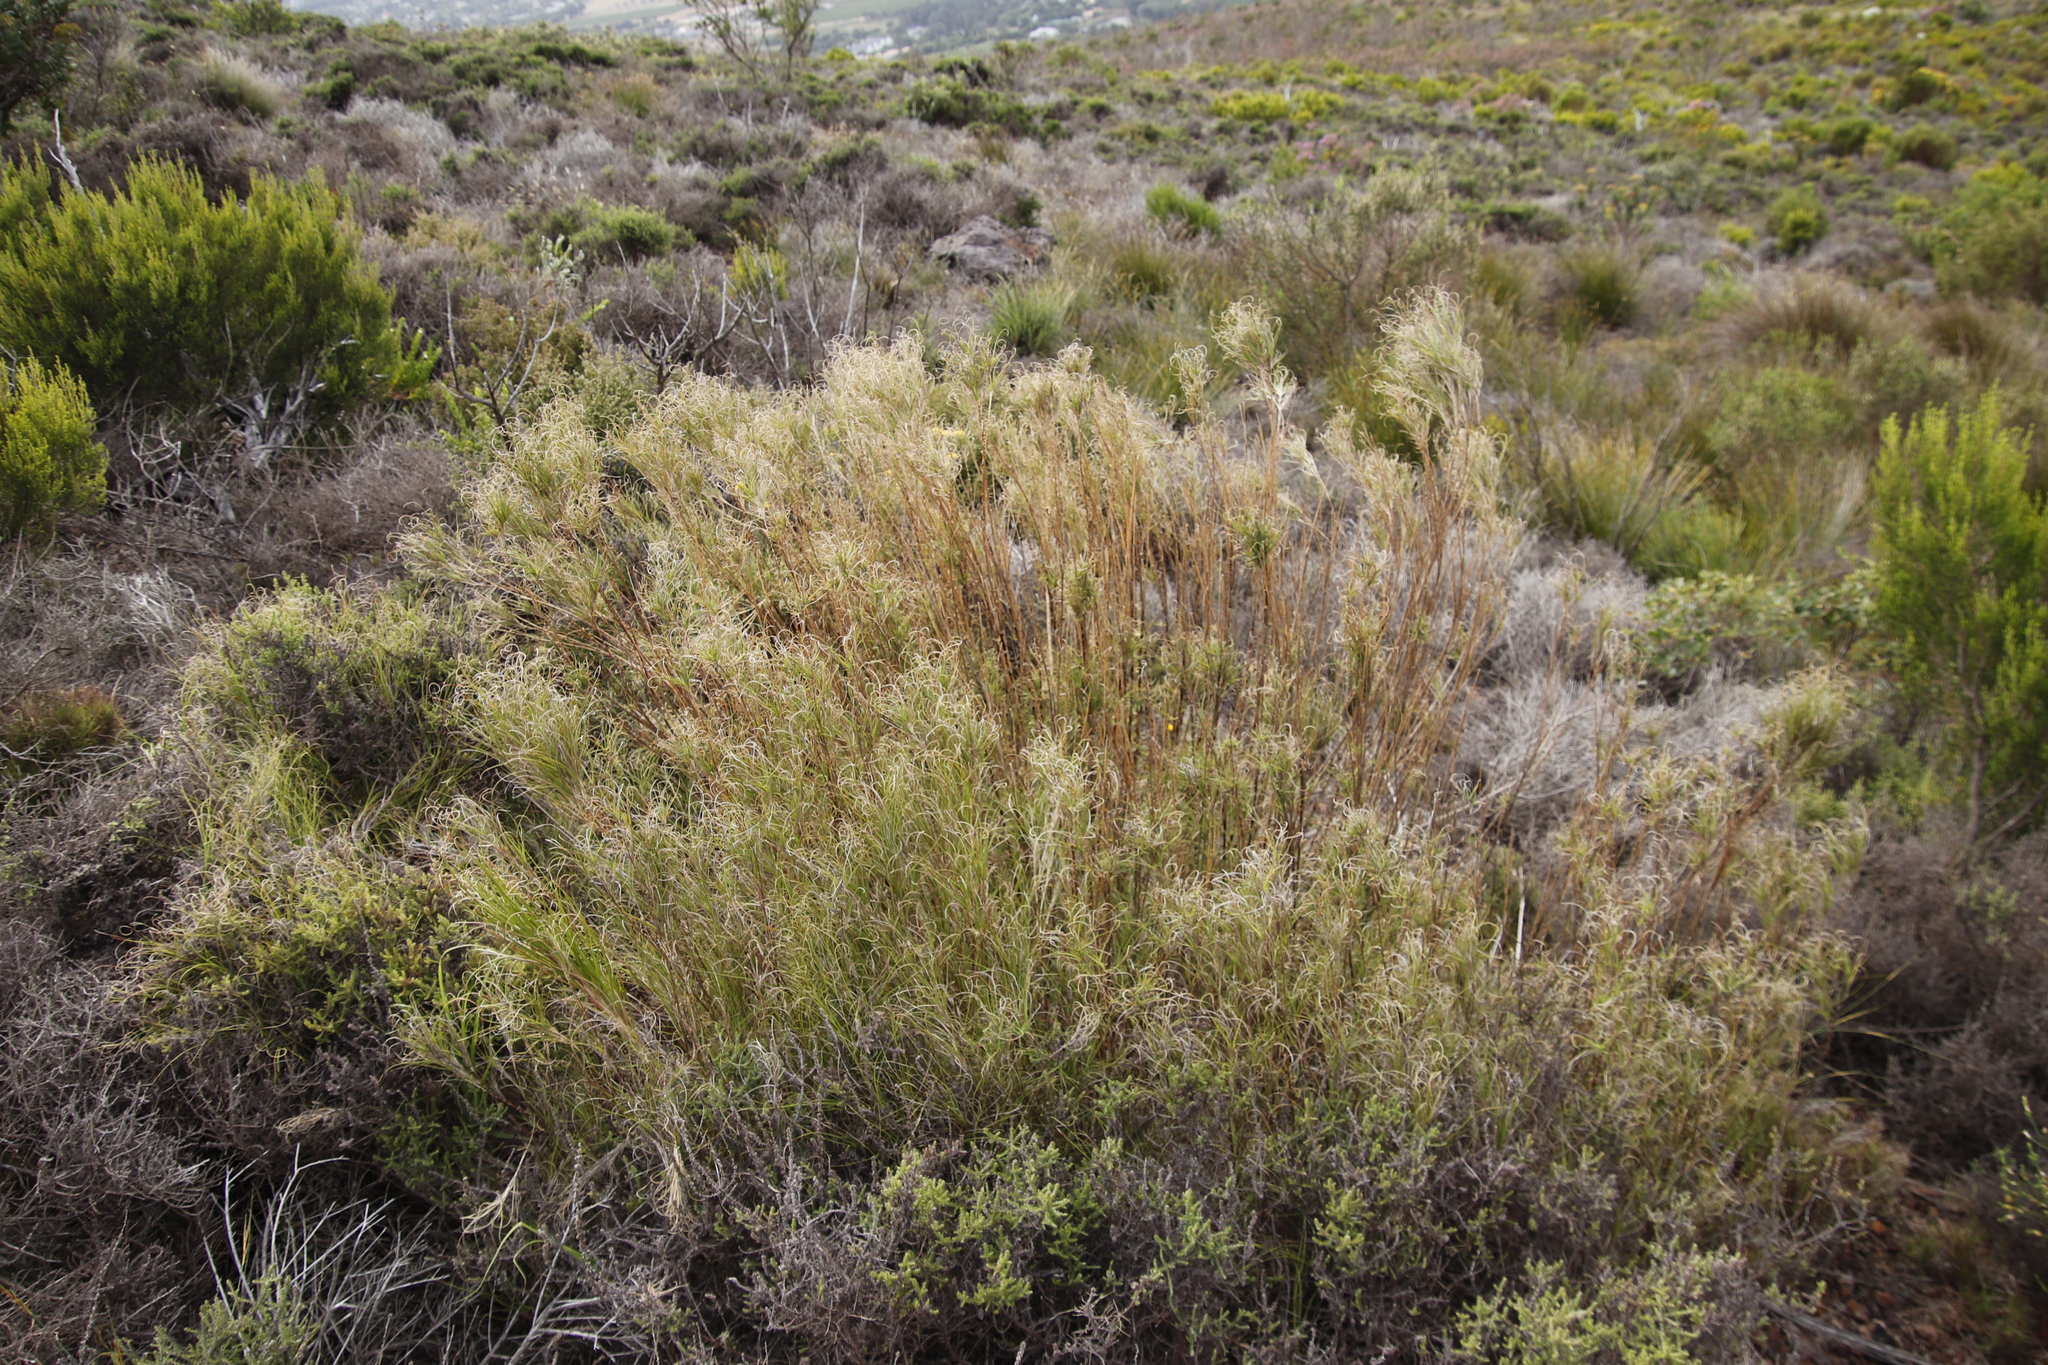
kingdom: Plantae
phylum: Tracheophyta
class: Liliopsida
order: Poales
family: Poaceae
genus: Pseudopentameris
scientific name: Pseudopentameris macrantha
